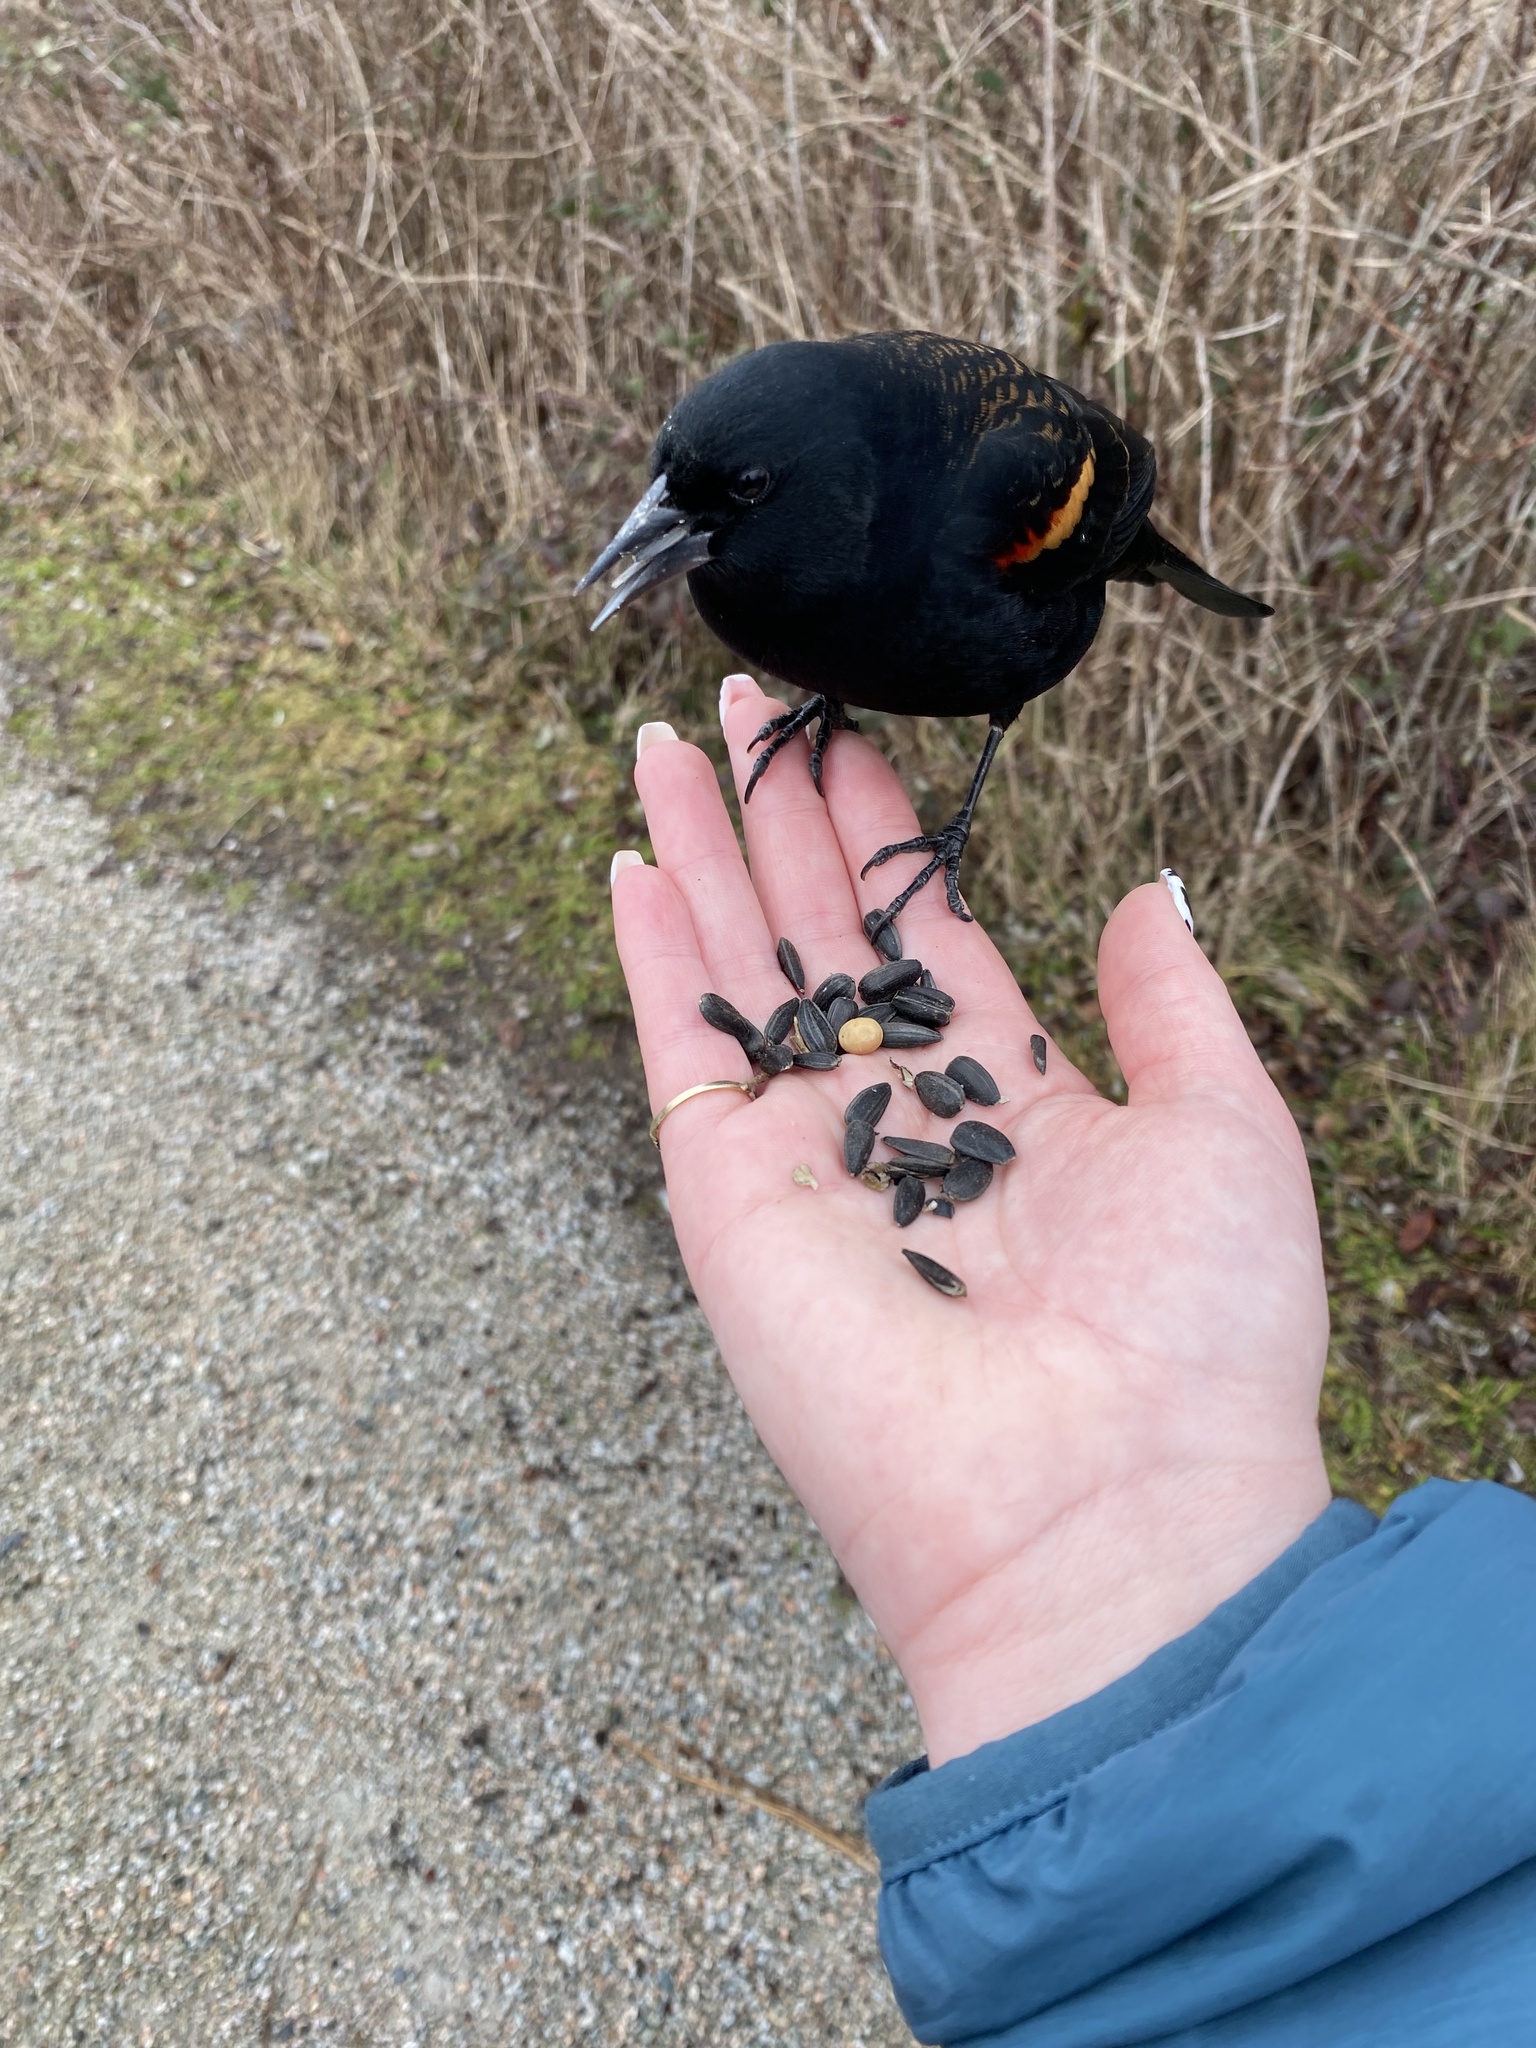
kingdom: Animalia
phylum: Chordata
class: Aves
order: Passeriformes
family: Icteridae
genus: Agelaius
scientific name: Agelaius phoeniceus
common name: Red-winged blackbird
